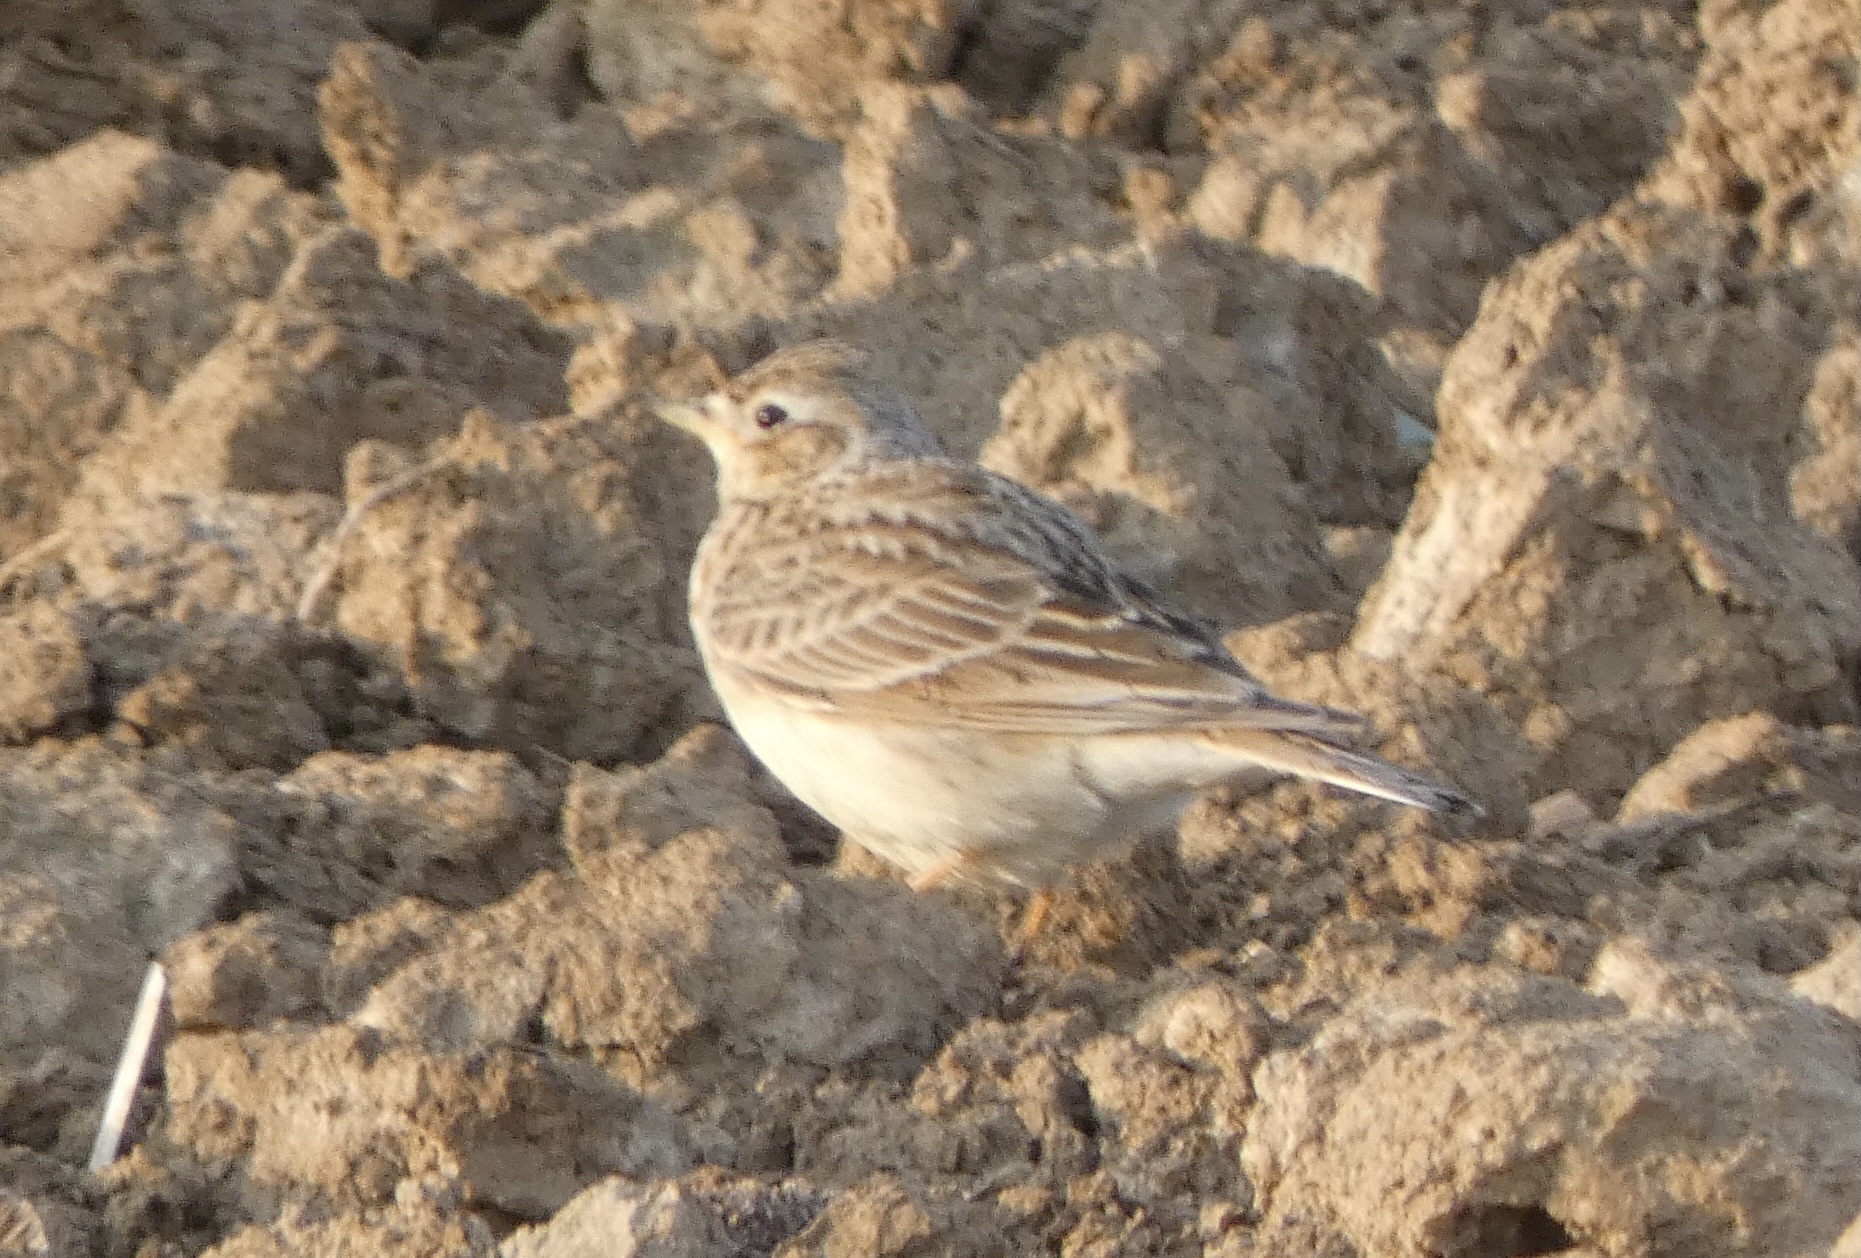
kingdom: Animalia
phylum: Chordata
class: Aves
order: Passeriformes
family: Alaudidae
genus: Alauda
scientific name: Alauda arvensis
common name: Eurasian skylark
